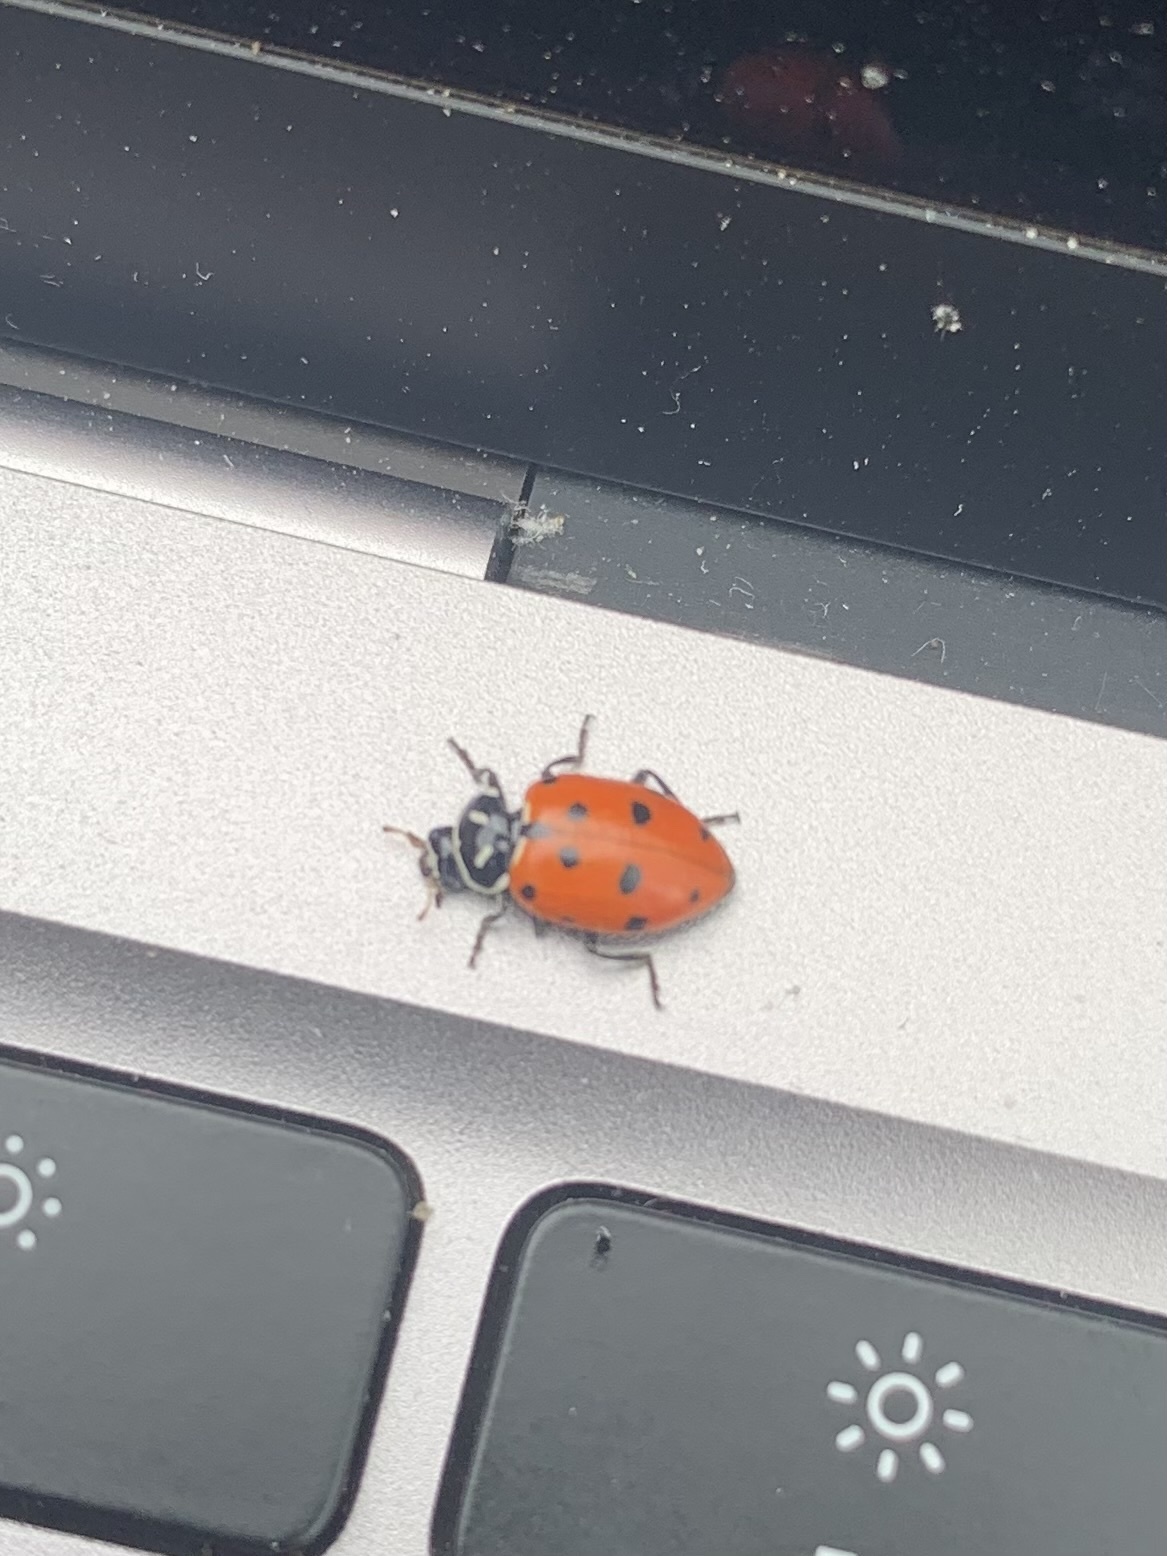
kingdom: Animalia
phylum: Arthropoda
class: Insecta
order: Coleoptera
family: Coccinellidae
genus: Hippodamia
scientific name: Hippodamia convergens
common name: Convergent lady beetle
